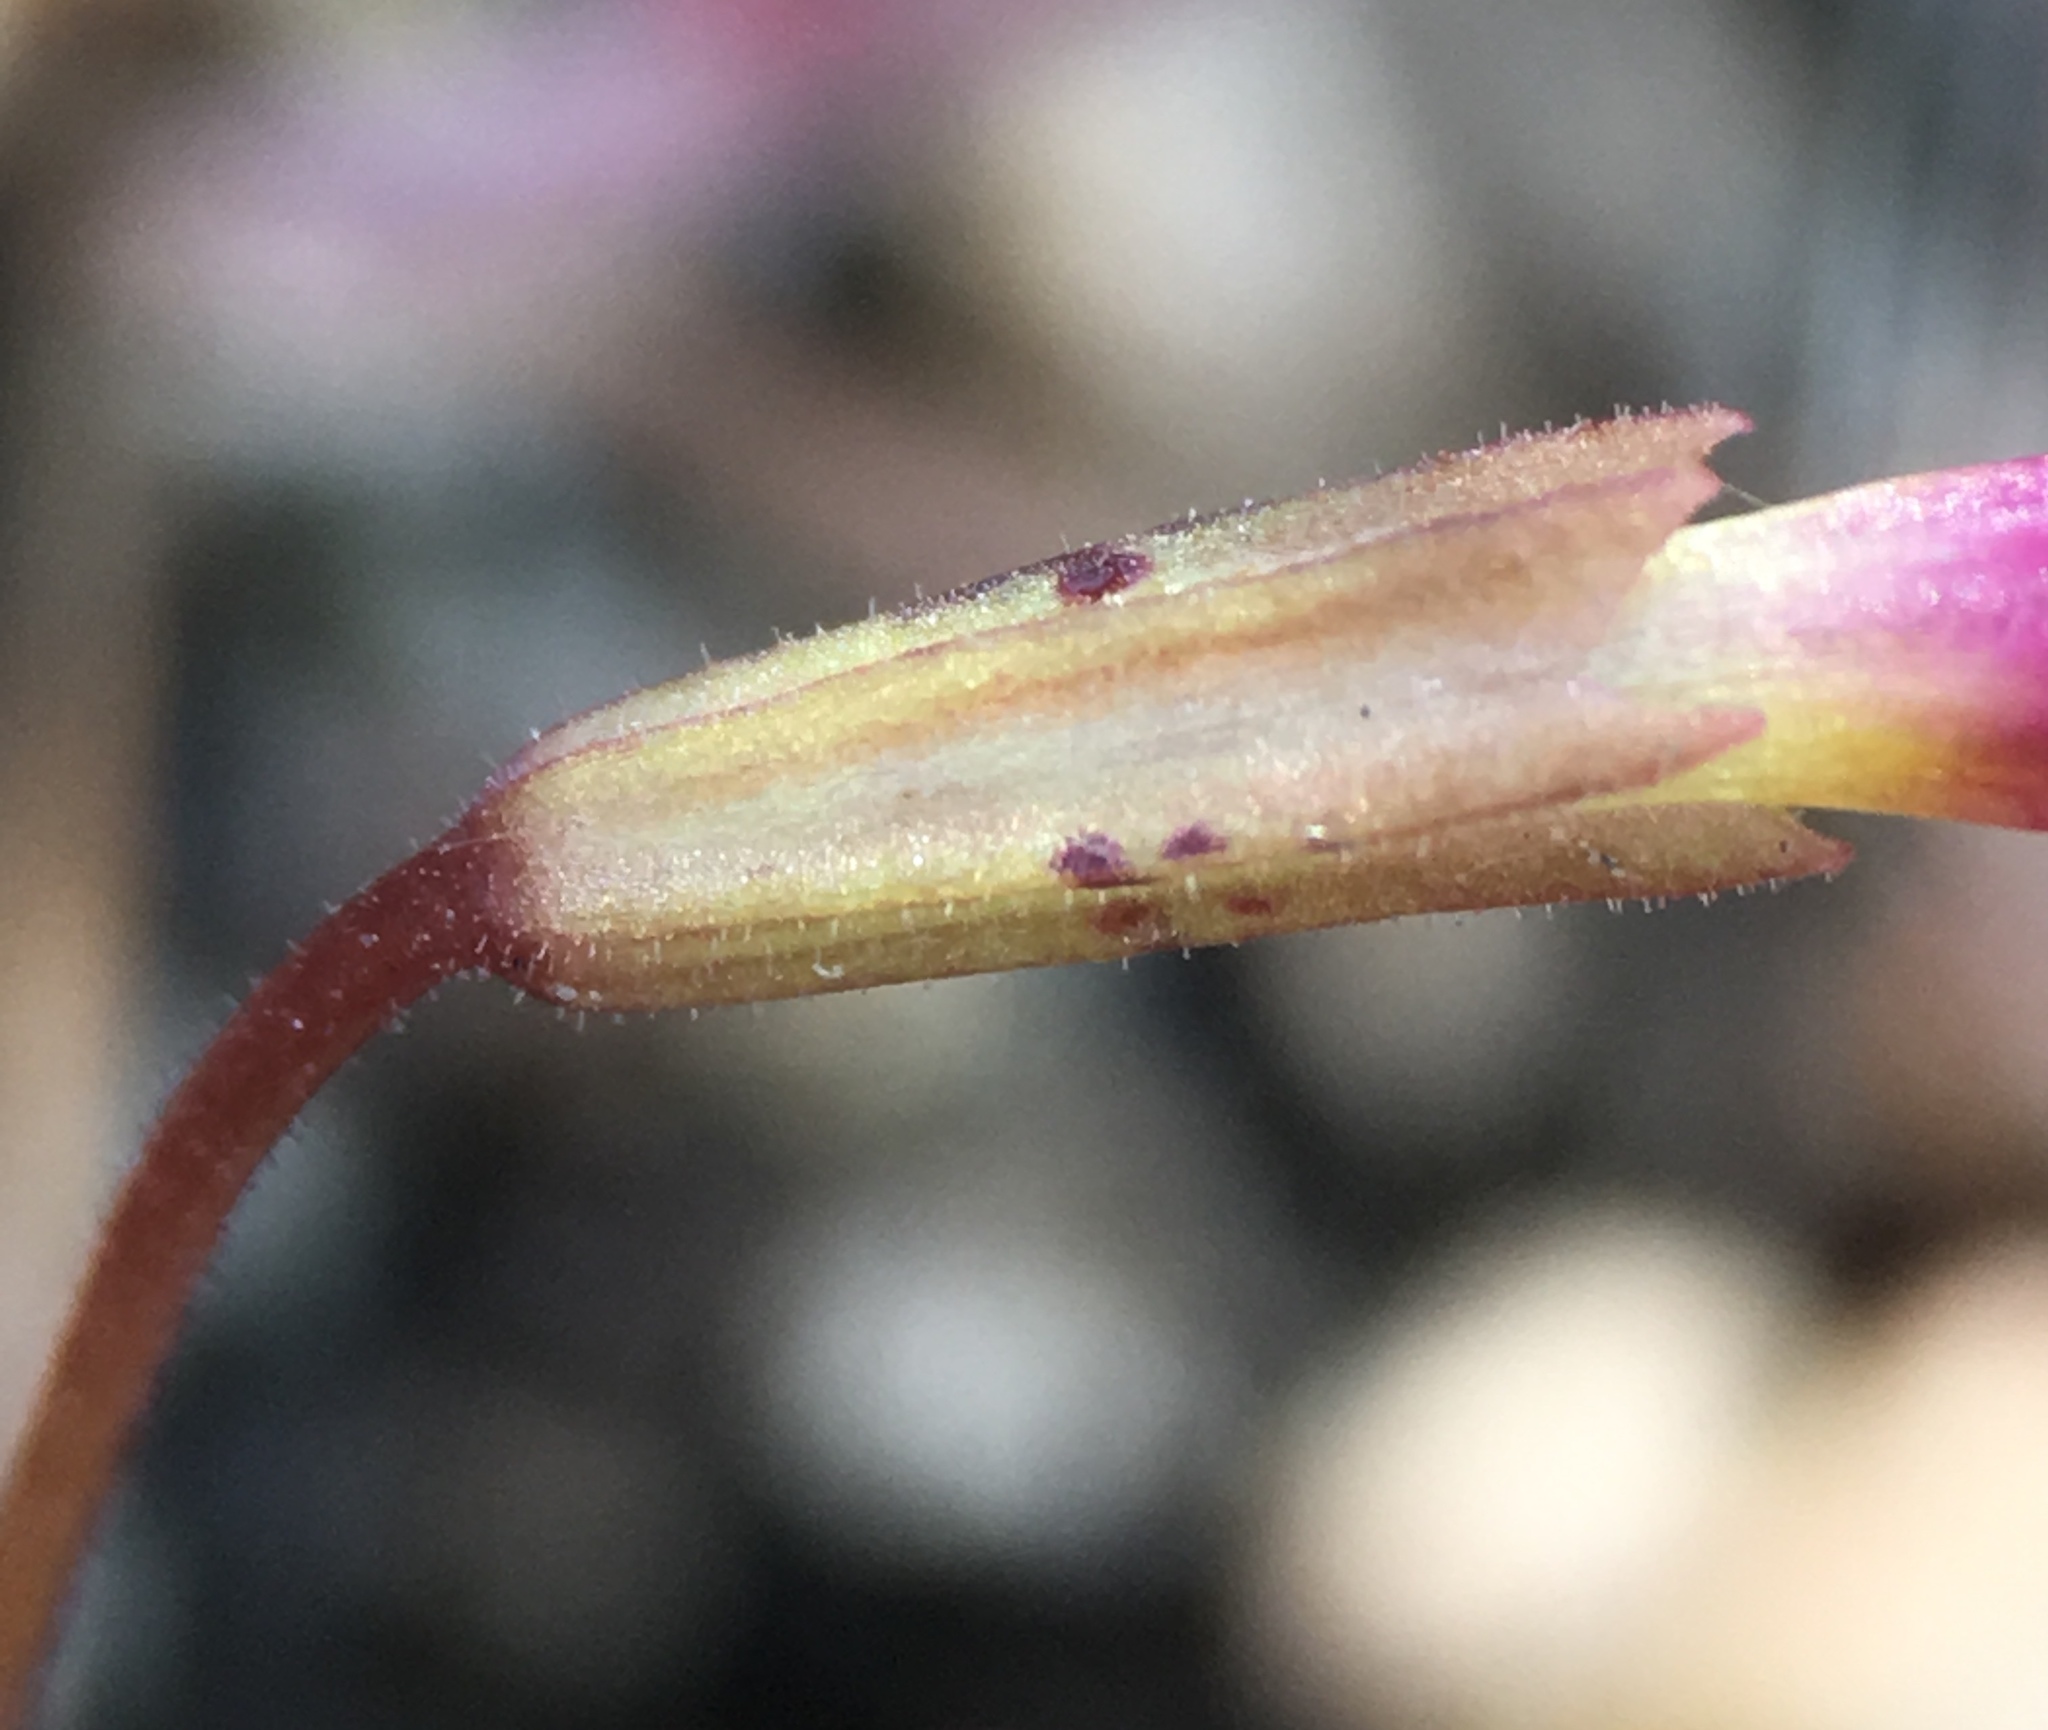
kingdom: Plantae
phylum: Tracheophyta
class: Magnoliopsida
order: Lamiales
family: Phrymaceae
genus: Erythranthe
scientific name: Erythranthe palmeri
